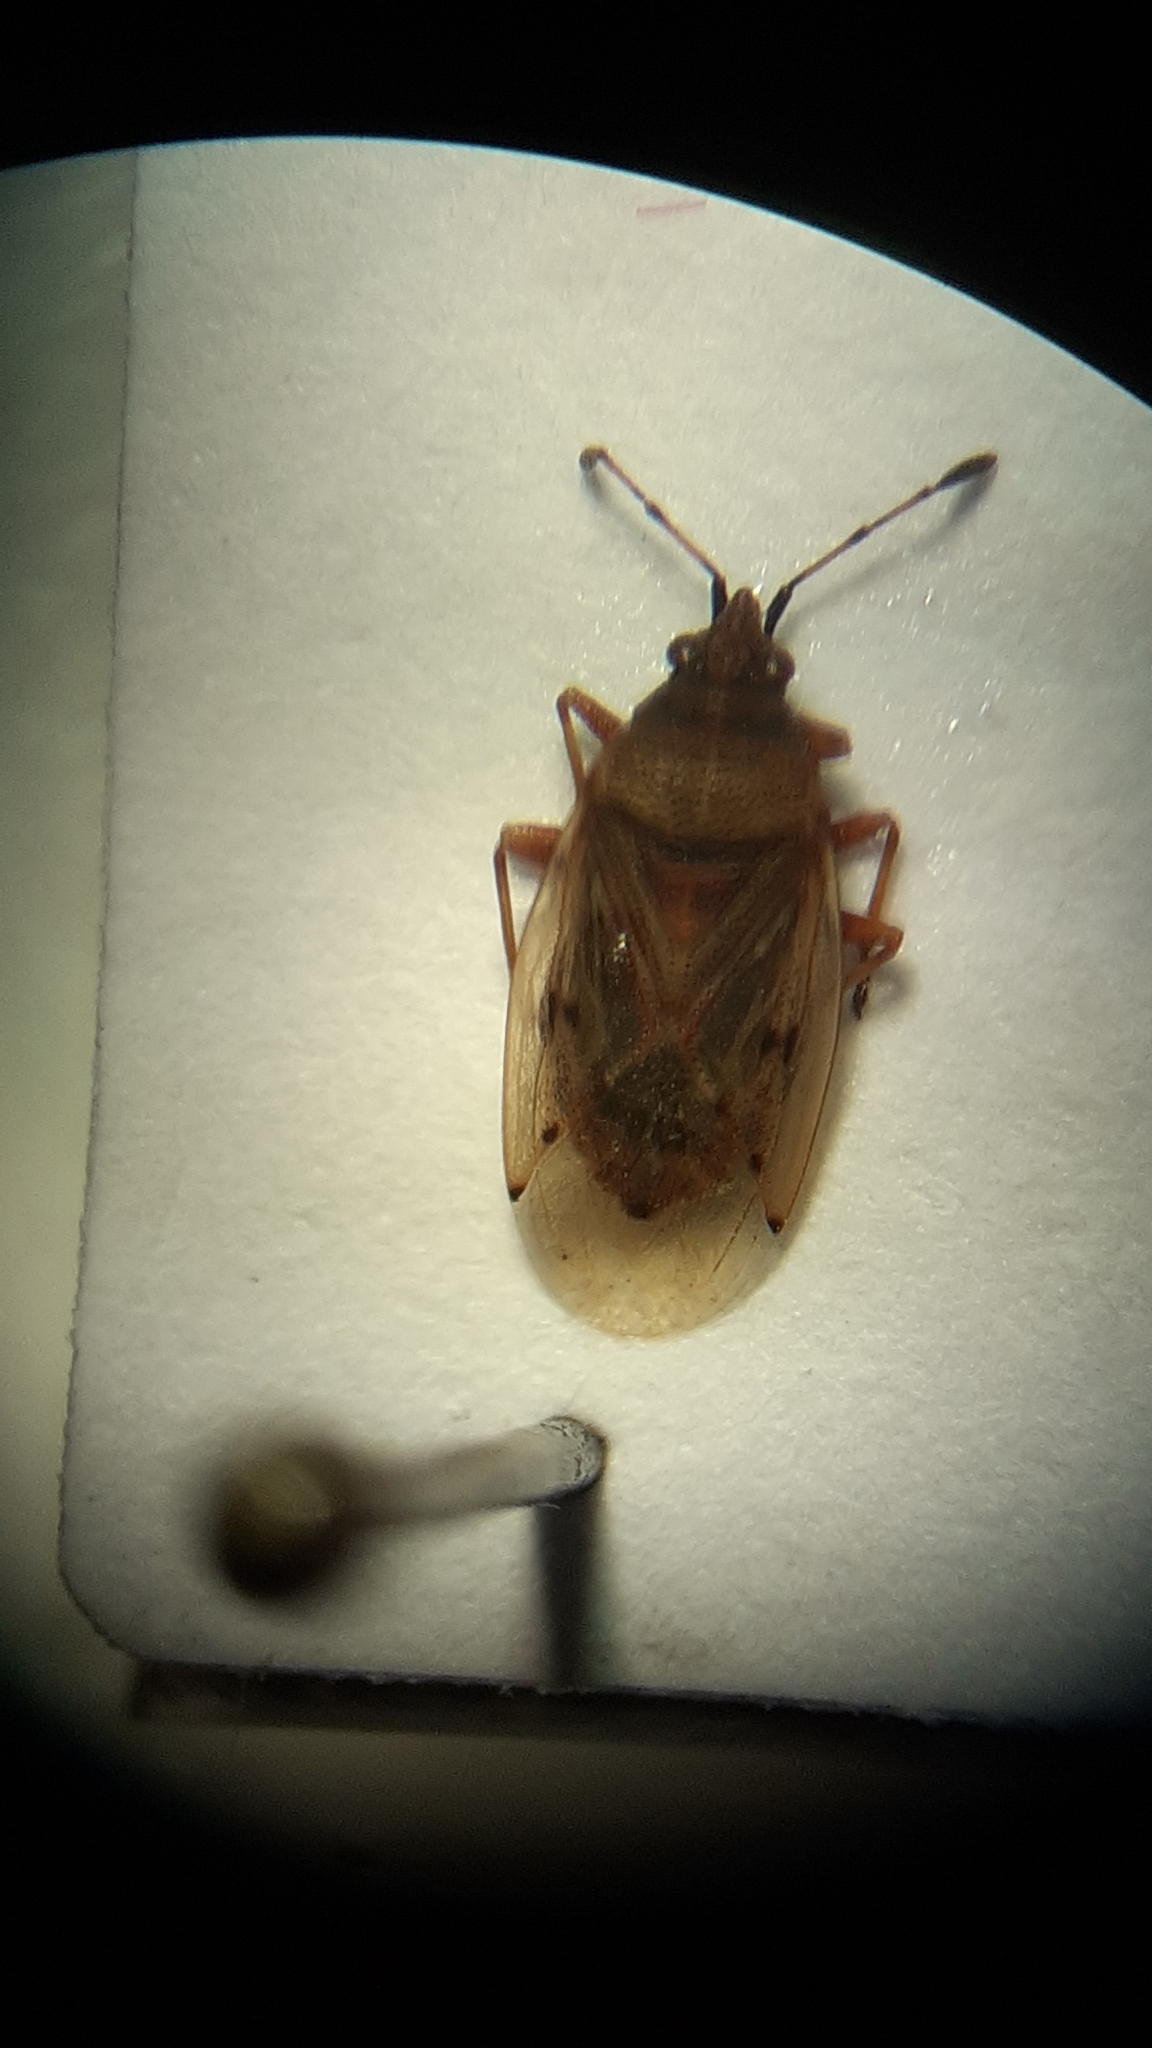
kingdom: Animalia
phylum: Arthropoda
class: Insecta
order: Hemiptera
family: Lygaeidae
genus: Kleidocerys
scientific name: Kleidocerys resedae
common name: Birch catkin bug
